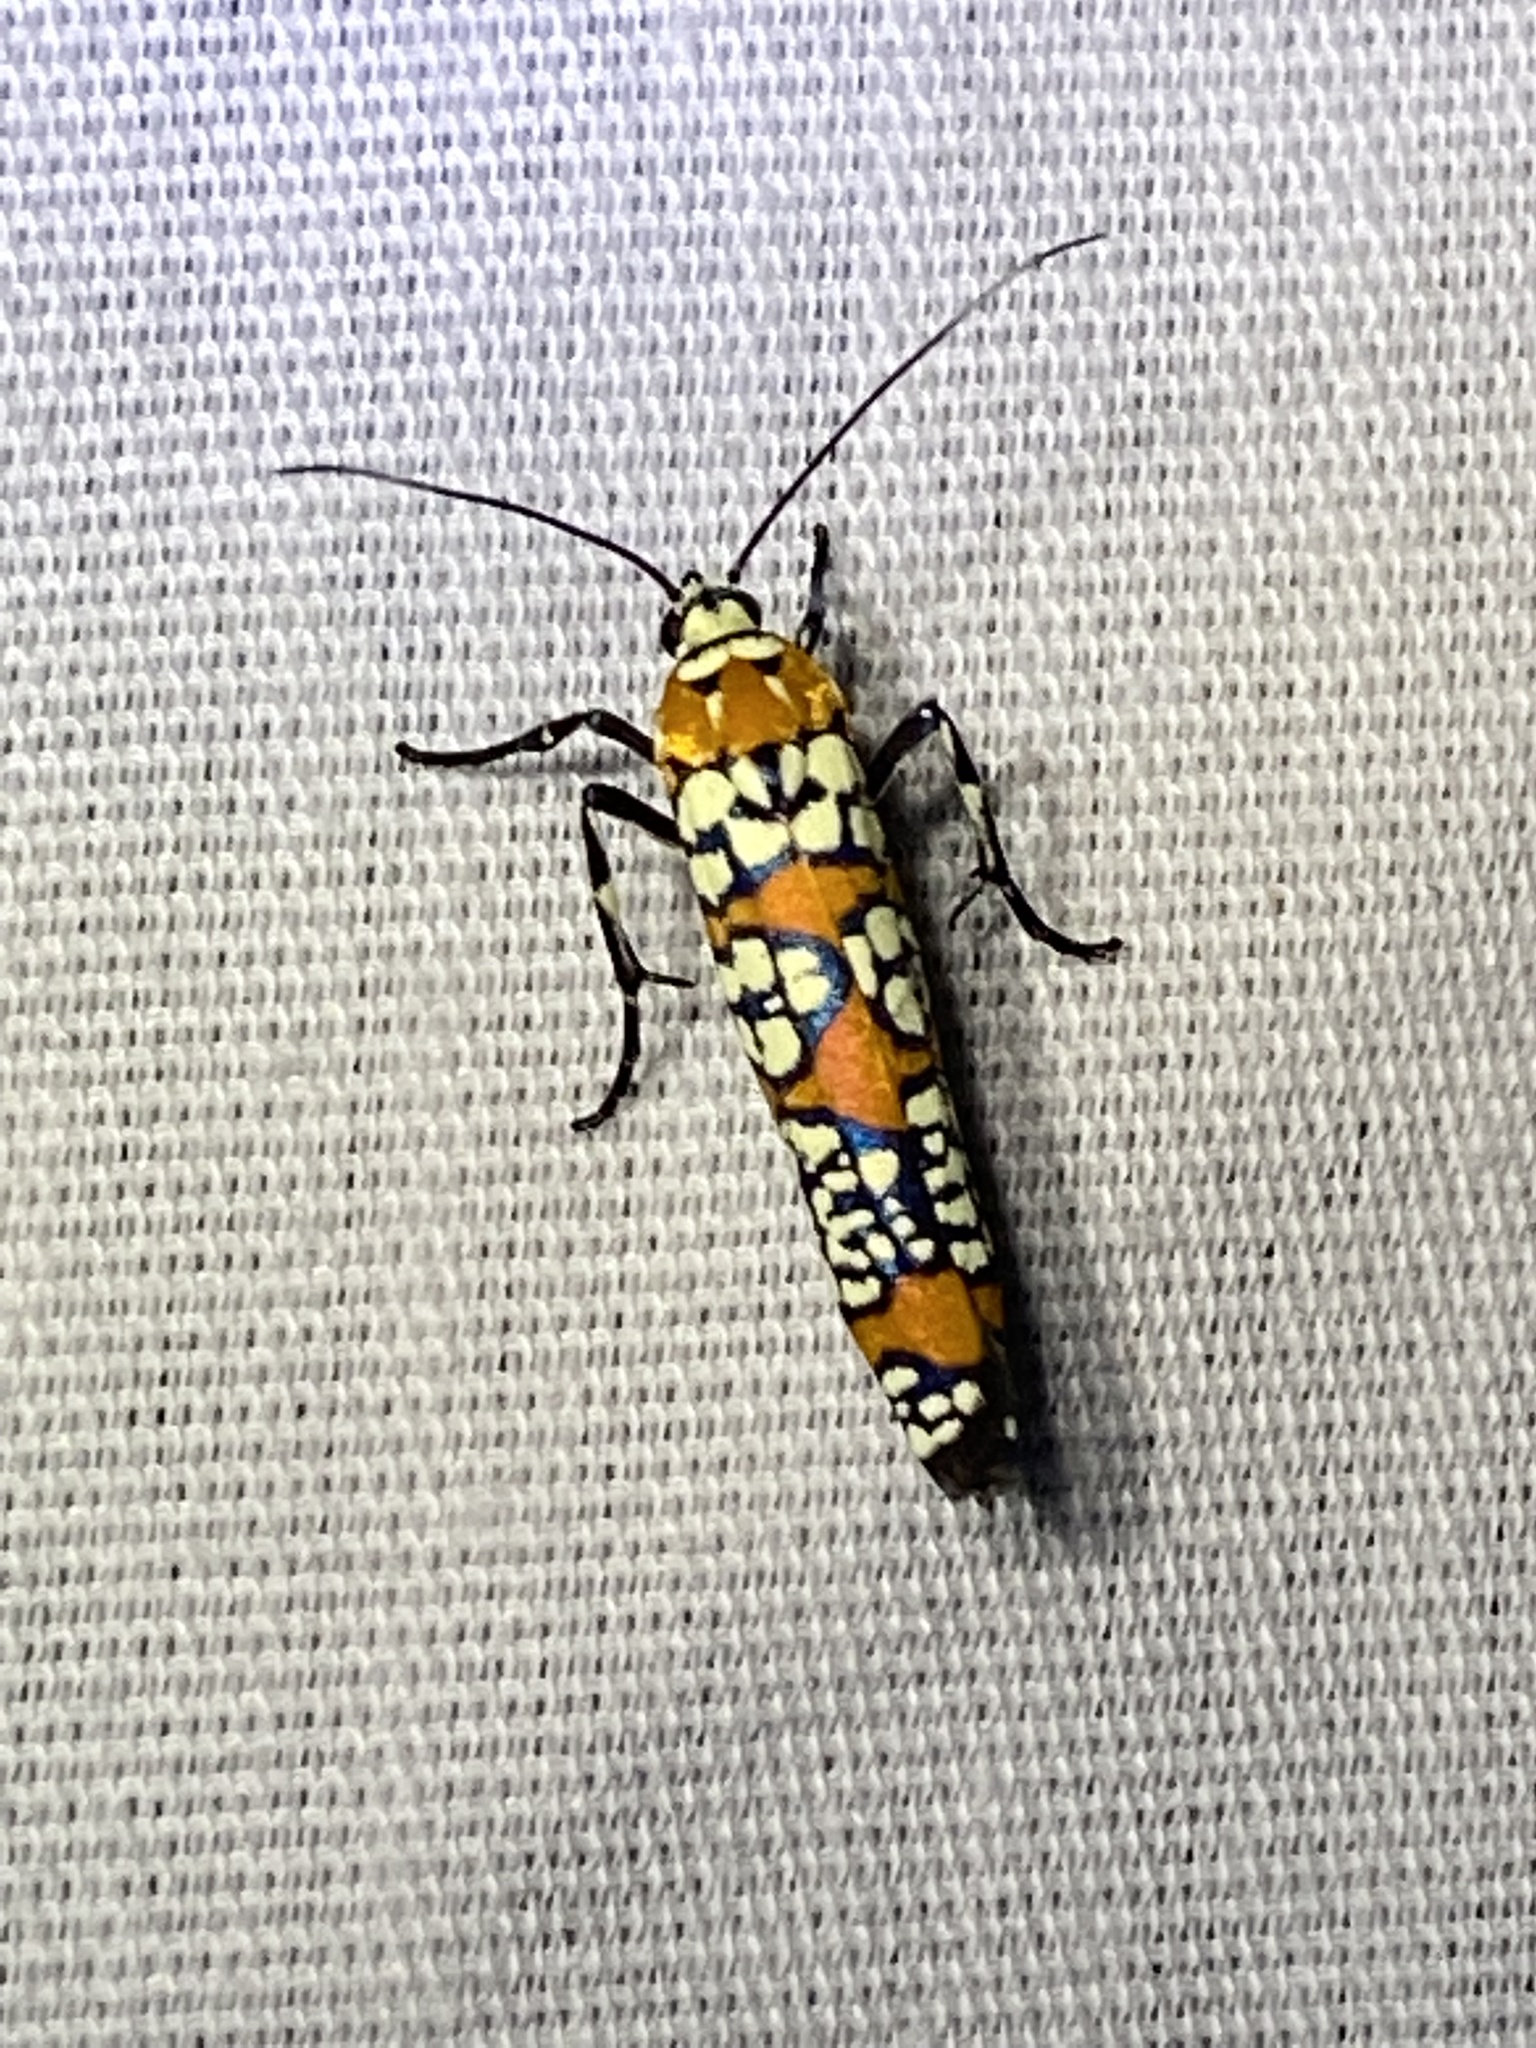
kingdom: Animalia
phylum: Arthropoda
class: Insecta
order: Lepidoptera
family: Attevidae
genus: Atteva
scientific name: Atteva punctella
